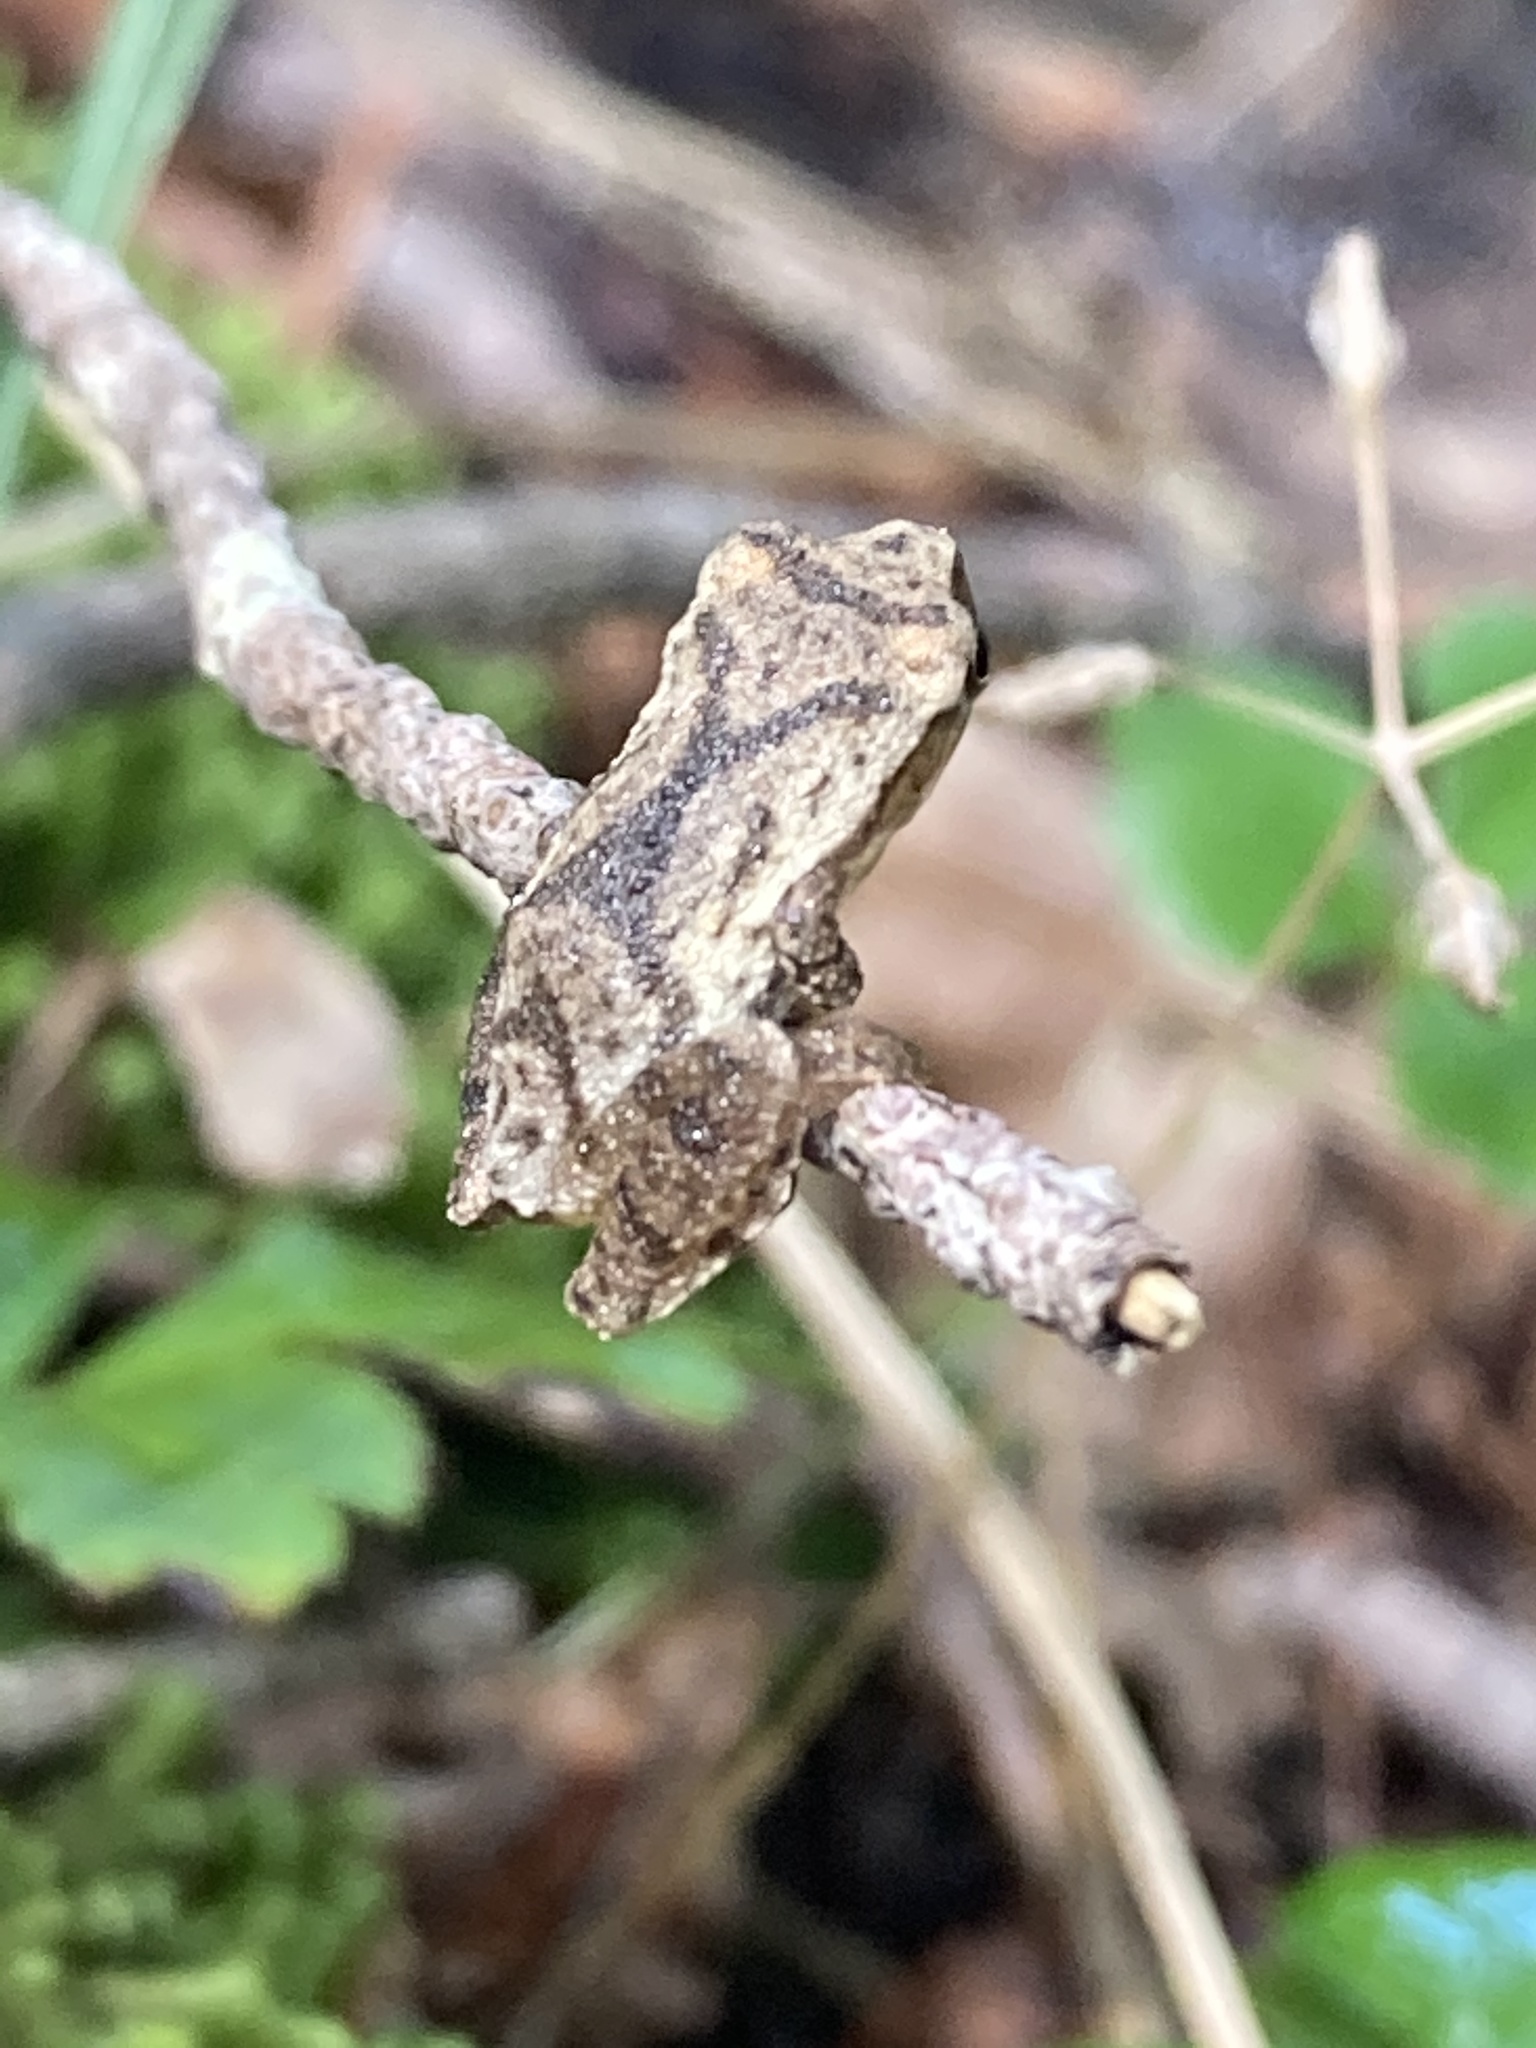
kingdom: Animalia
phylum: Chordata
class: Amphibia
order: Anura
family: Hylidae
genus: Pseudacris
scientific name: Pseudacris crucifer
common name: Spring peeper
